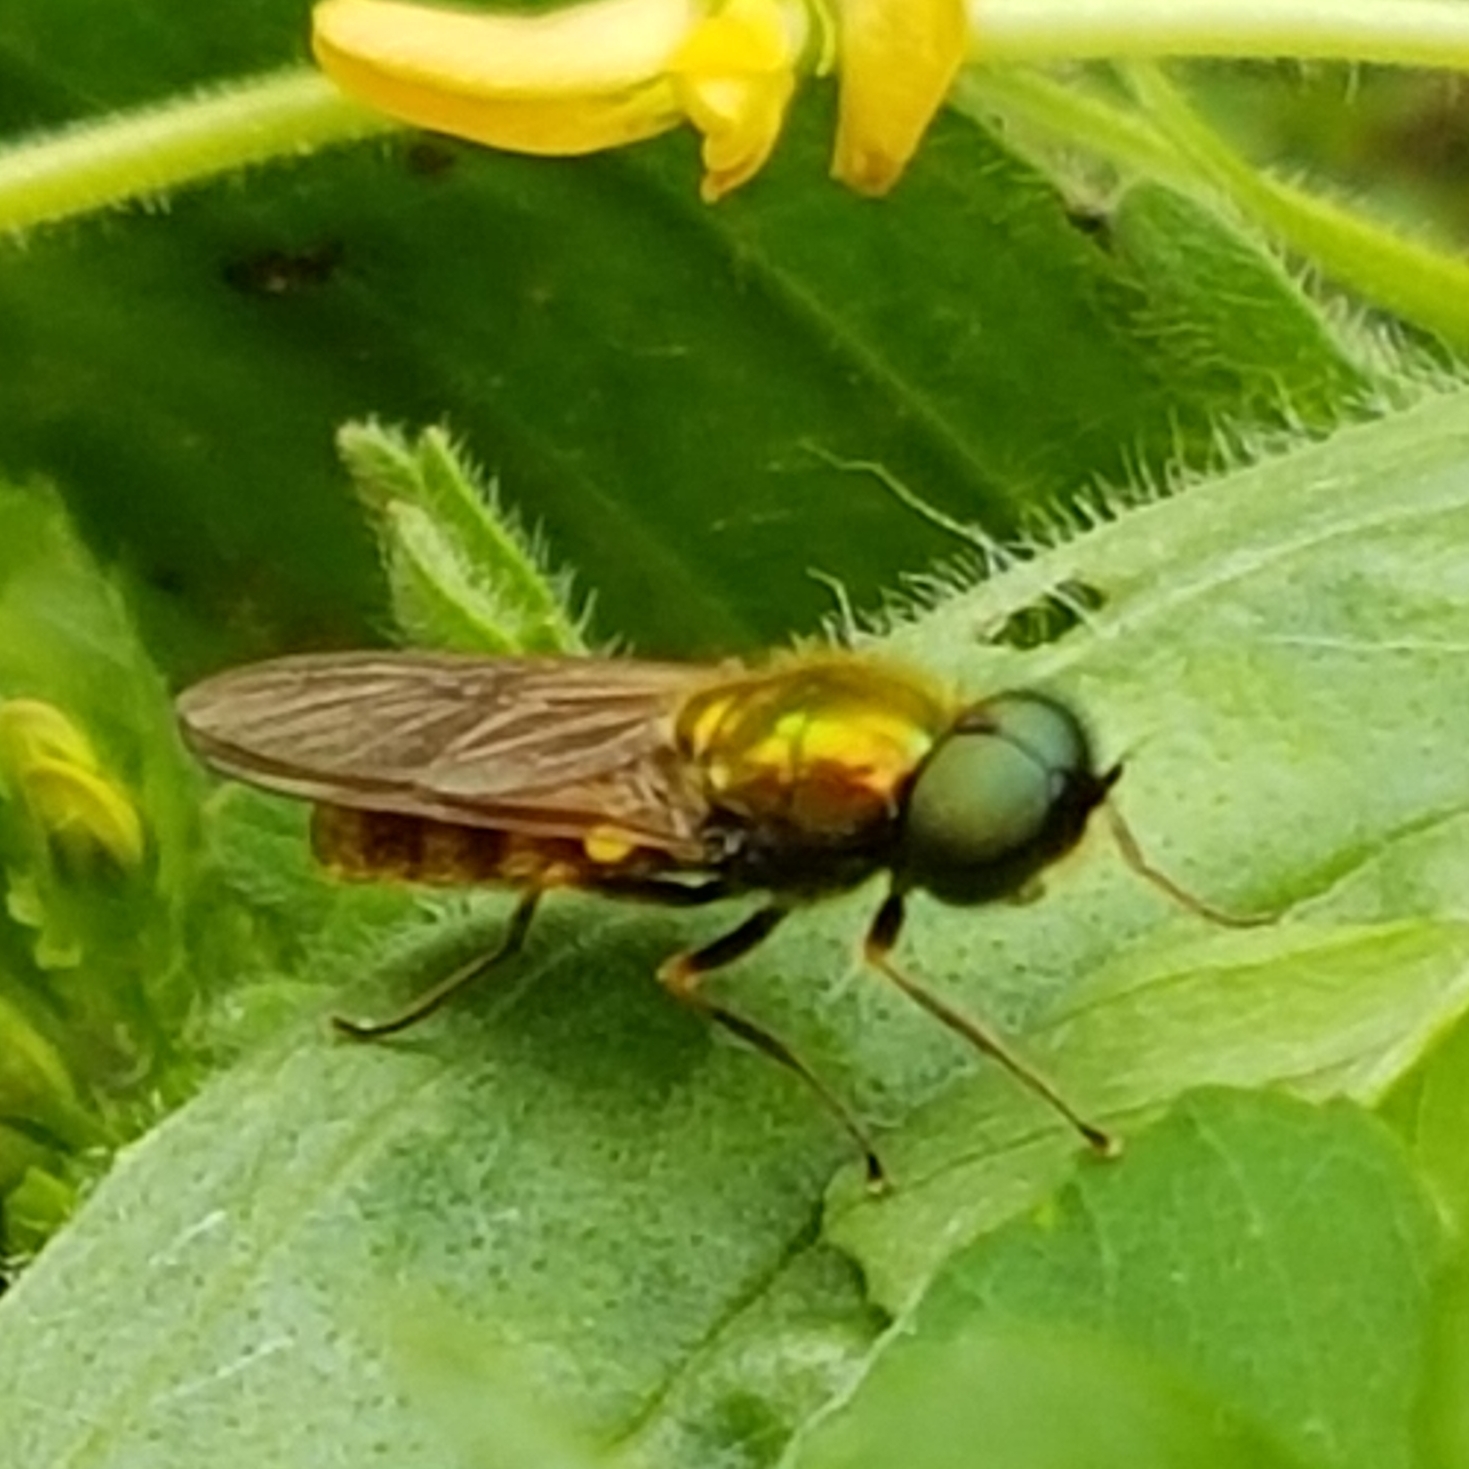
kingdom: Animalia
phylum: Arthropoda
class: Insecta
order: Diptera
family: Stratiomyidae
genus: Chloromyia
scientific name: Chloromyia formosa
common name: Soldier fly
